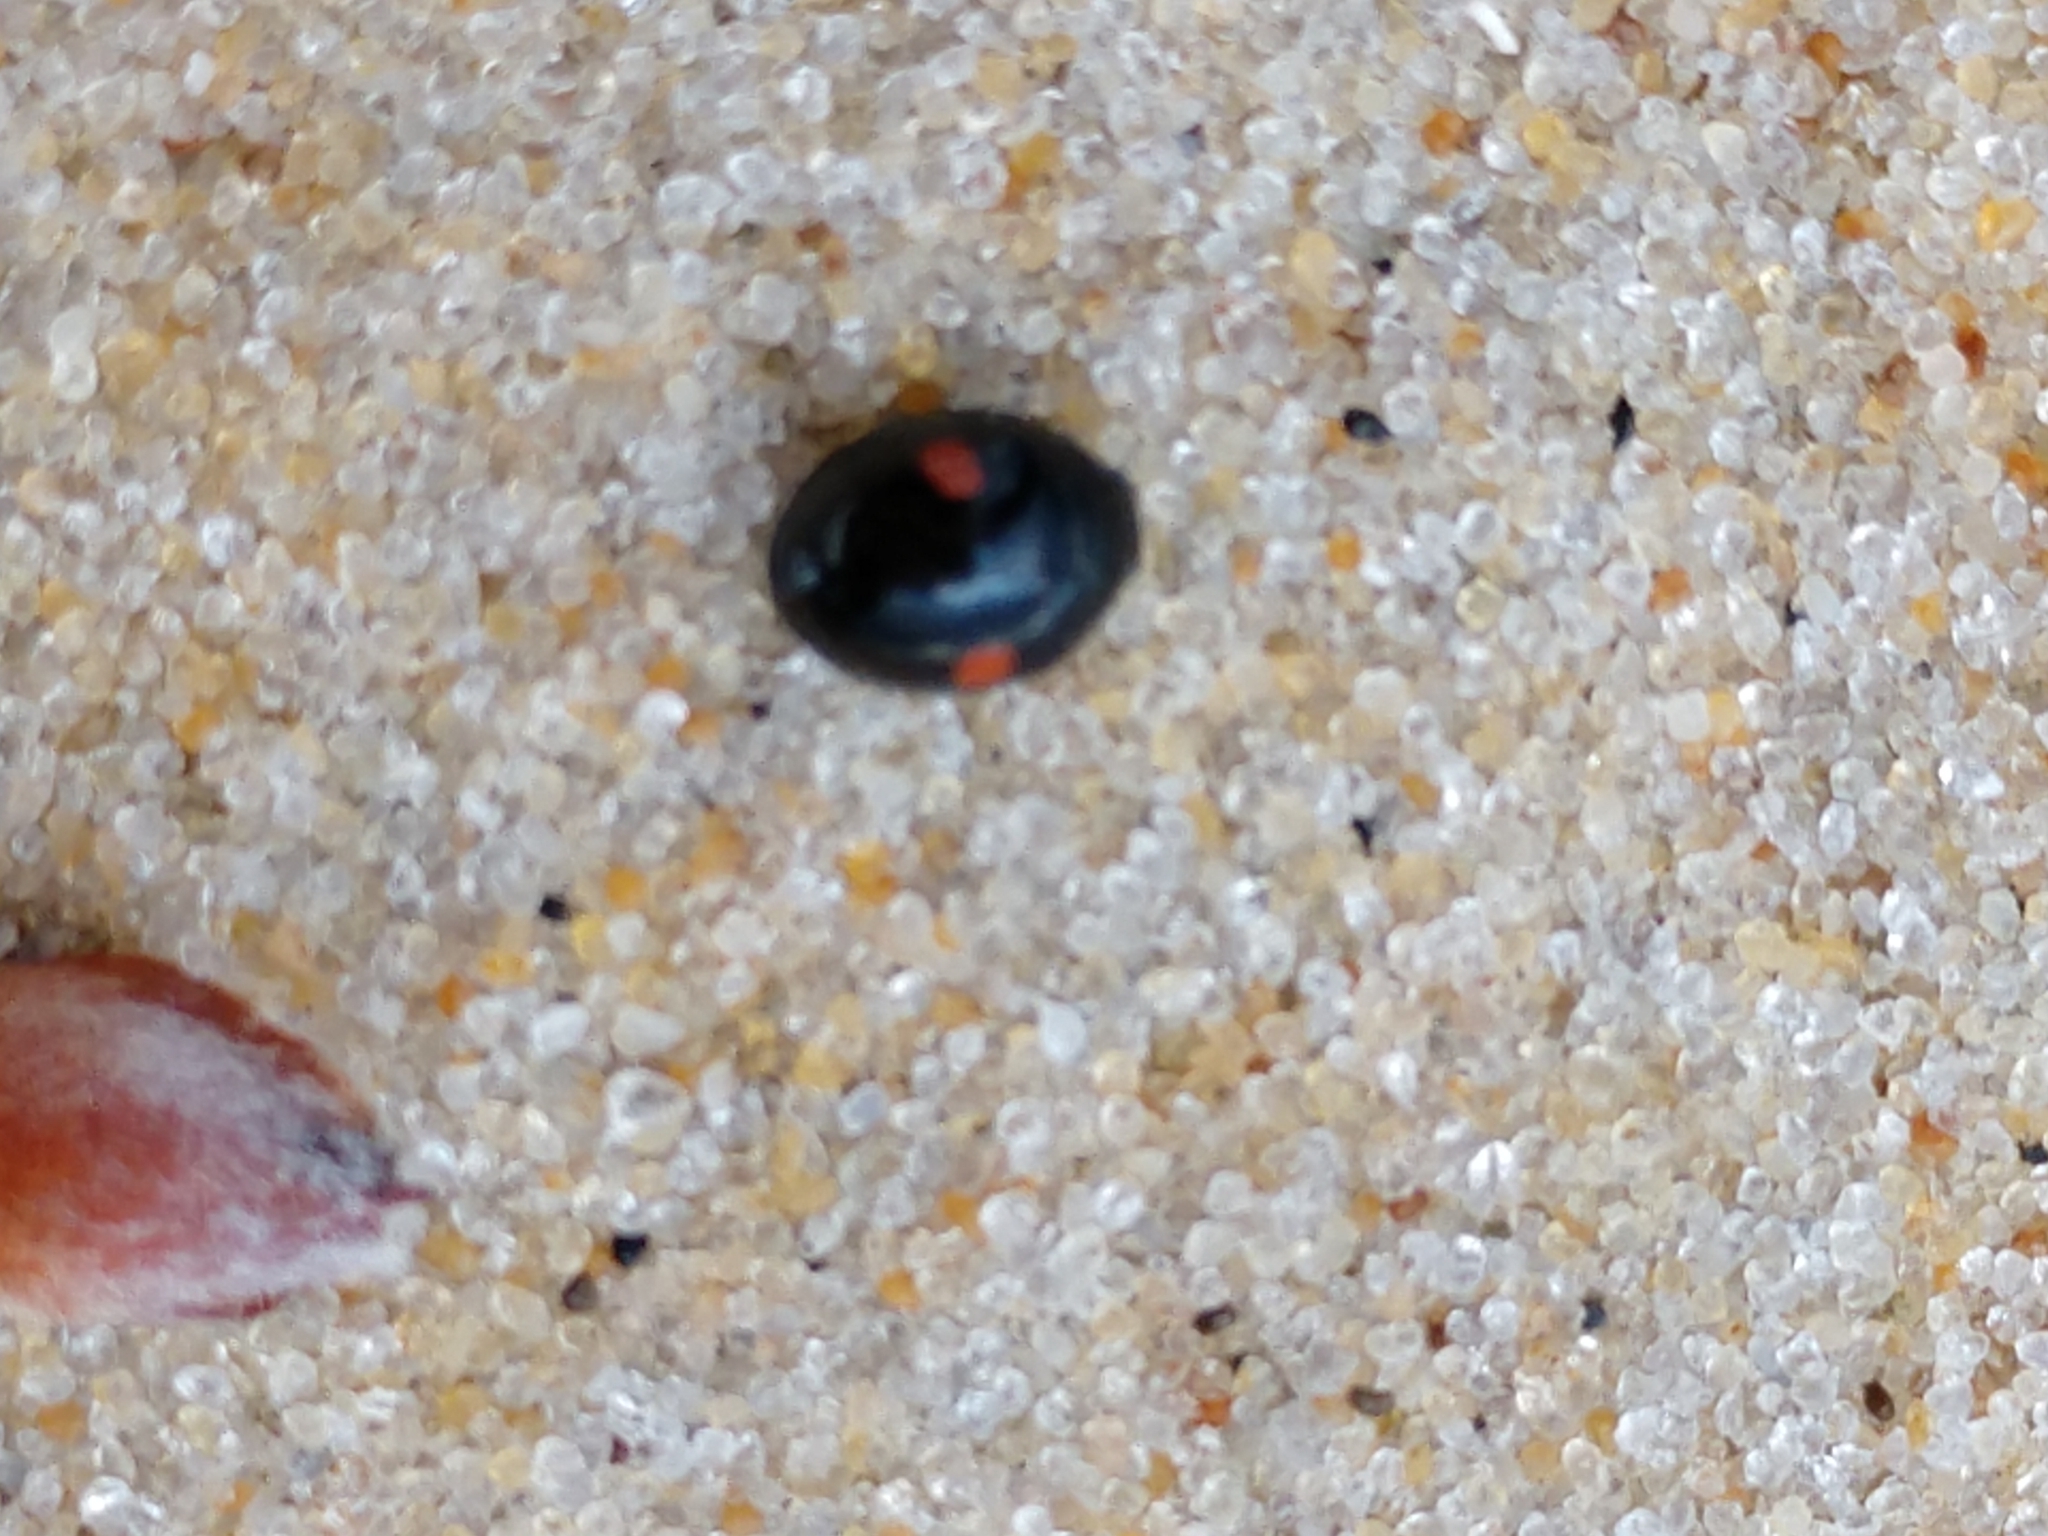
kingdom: Animalia
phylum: Arthropoda
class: Insecta
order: Coleoptera
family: Coccinellidae
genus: Chilocorus
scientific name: Chilocorus stigma
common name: Twicestabbed lady beetle
